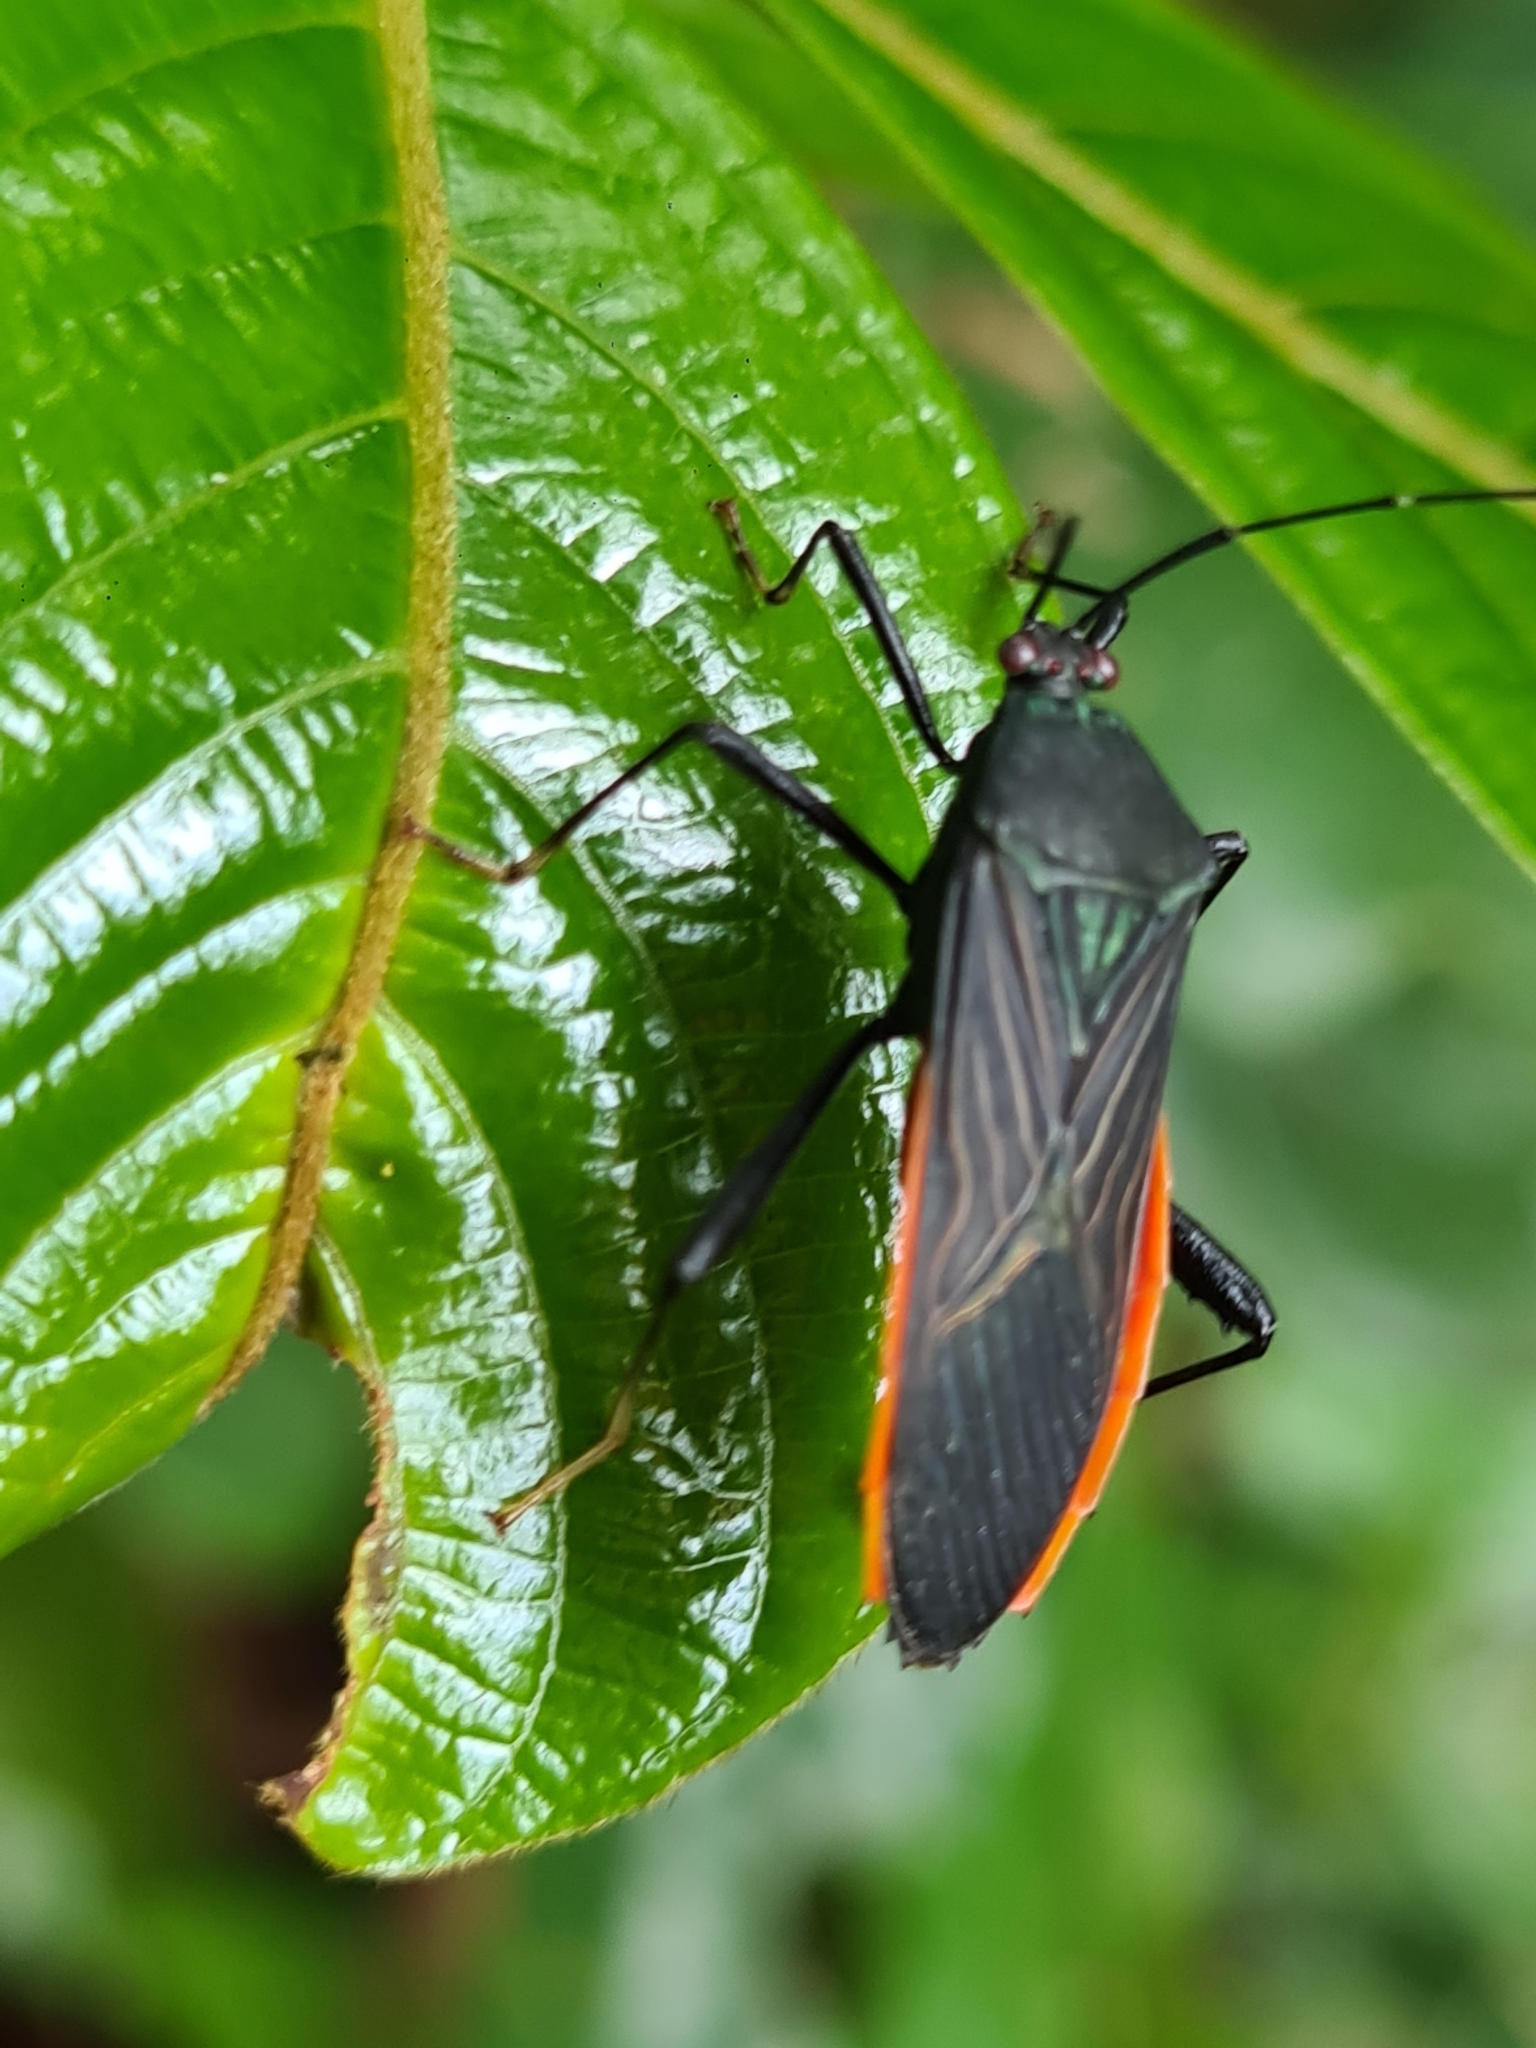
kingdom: Animalia
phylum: Arthropoda
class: Insecta
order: Hemiptera
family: Coreidae
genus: Nematopus
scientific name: Nematopus indus
